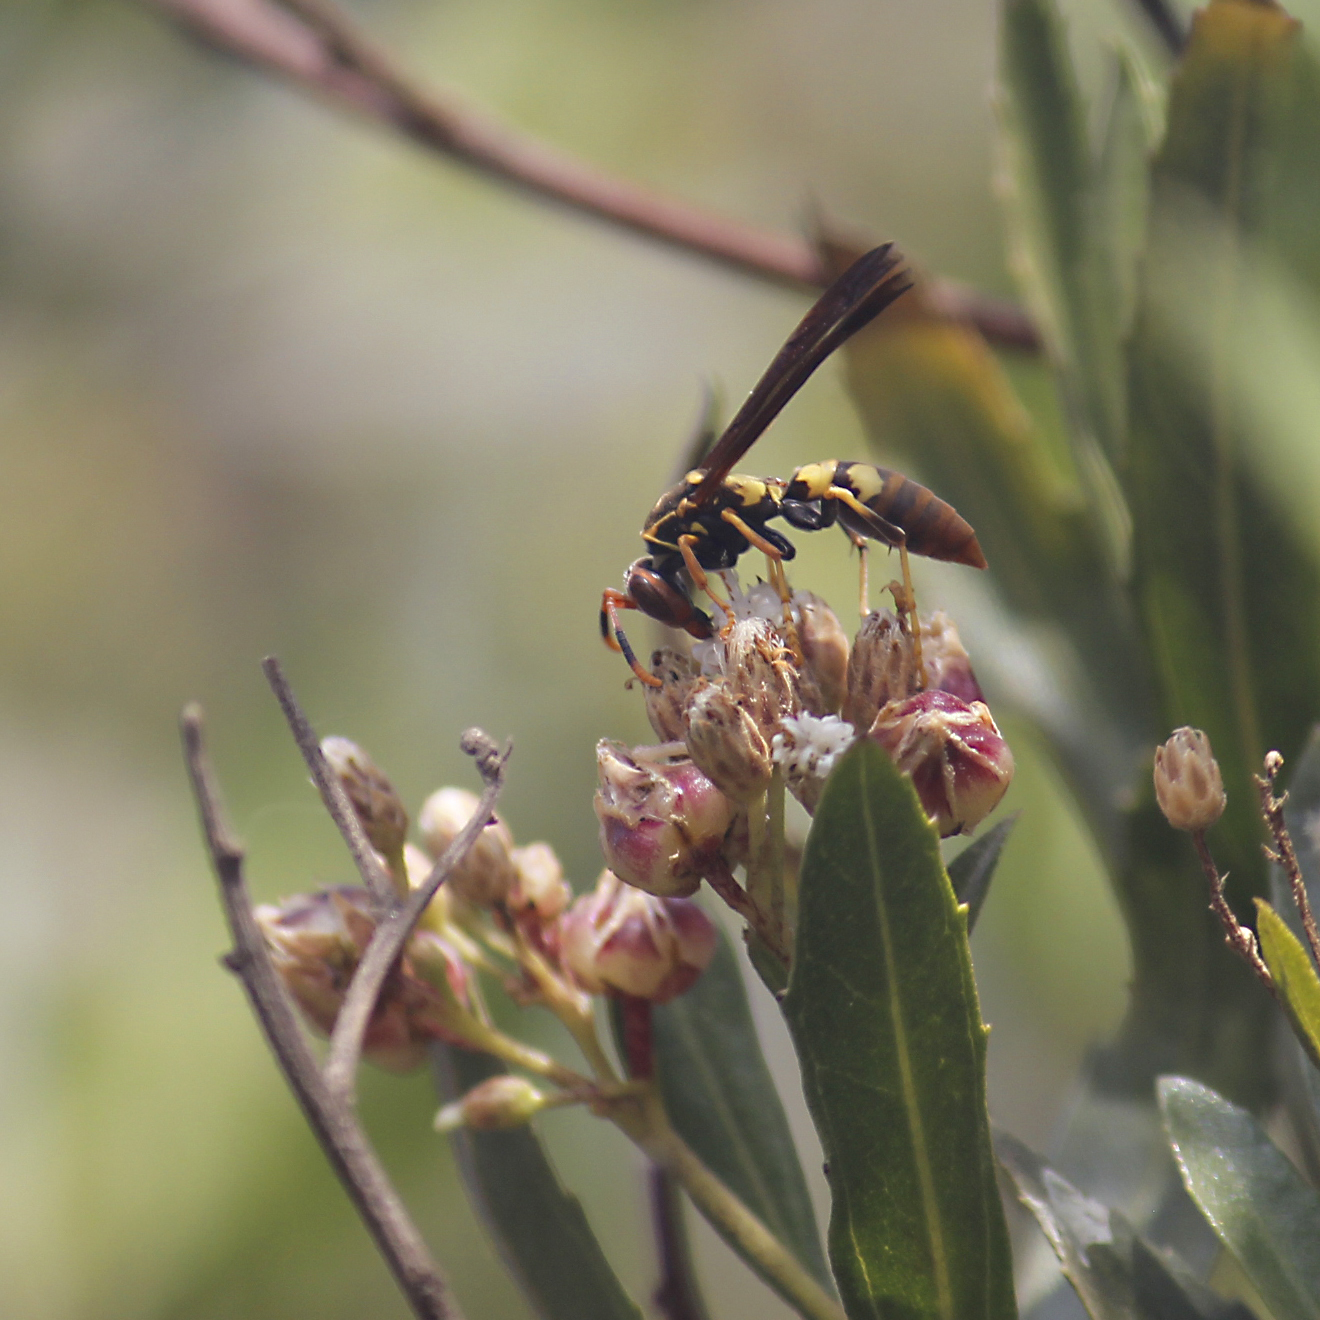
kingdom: Animalia
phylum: Arthropoda
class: Insecta
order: Hymenoptera
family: Eumenidae
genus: Polistes
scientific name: Polistes peruvianus
